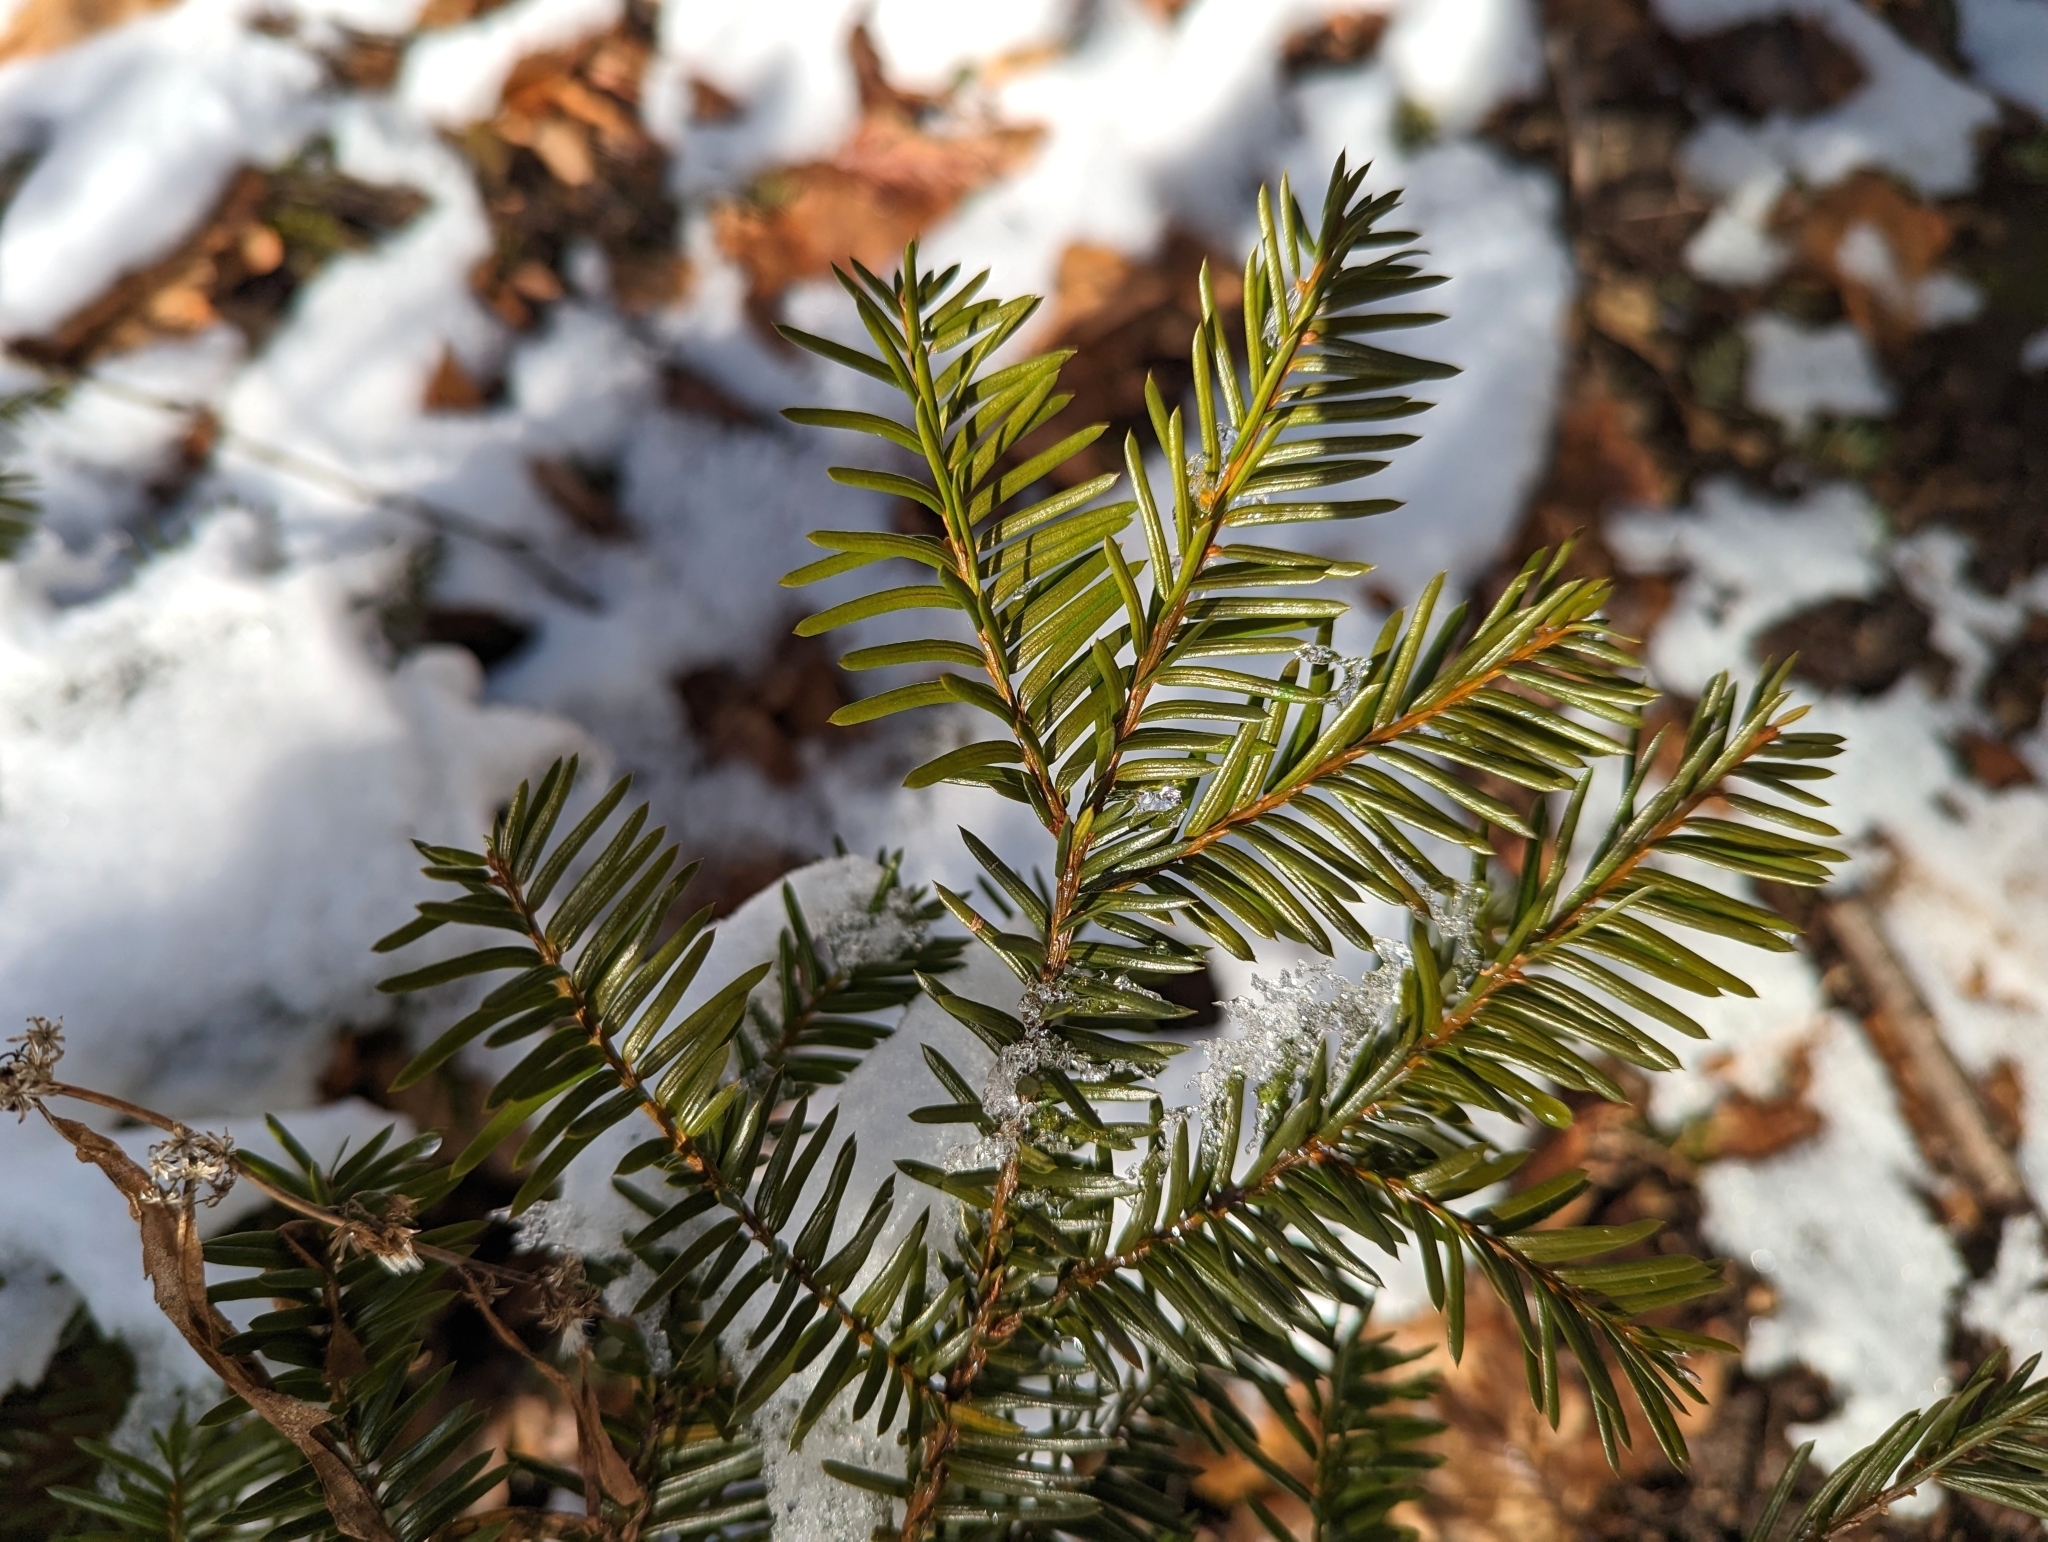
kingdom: Plantae
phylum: Tracheophyta
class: Pinopsida
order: Pinales
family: Taxaceae
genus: Taxus
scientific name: Taxus canadensis
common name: American yew
